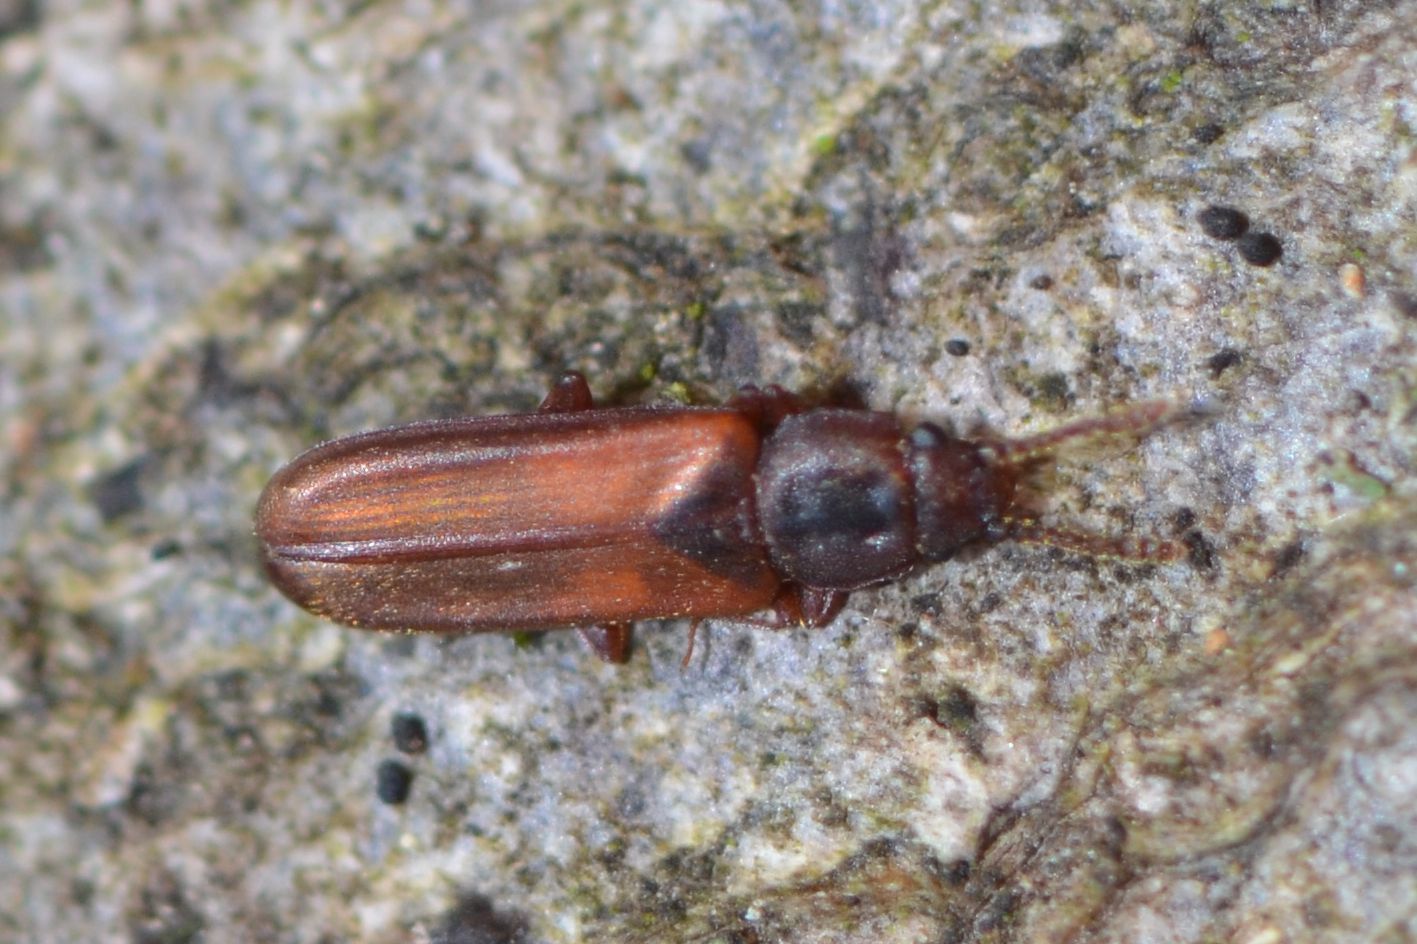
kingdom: Animalia
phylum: Arthropoda
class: Insecta
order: Coleoptera
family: Cucujidae
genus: Pediacus
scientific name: Pediacus dermestoides
